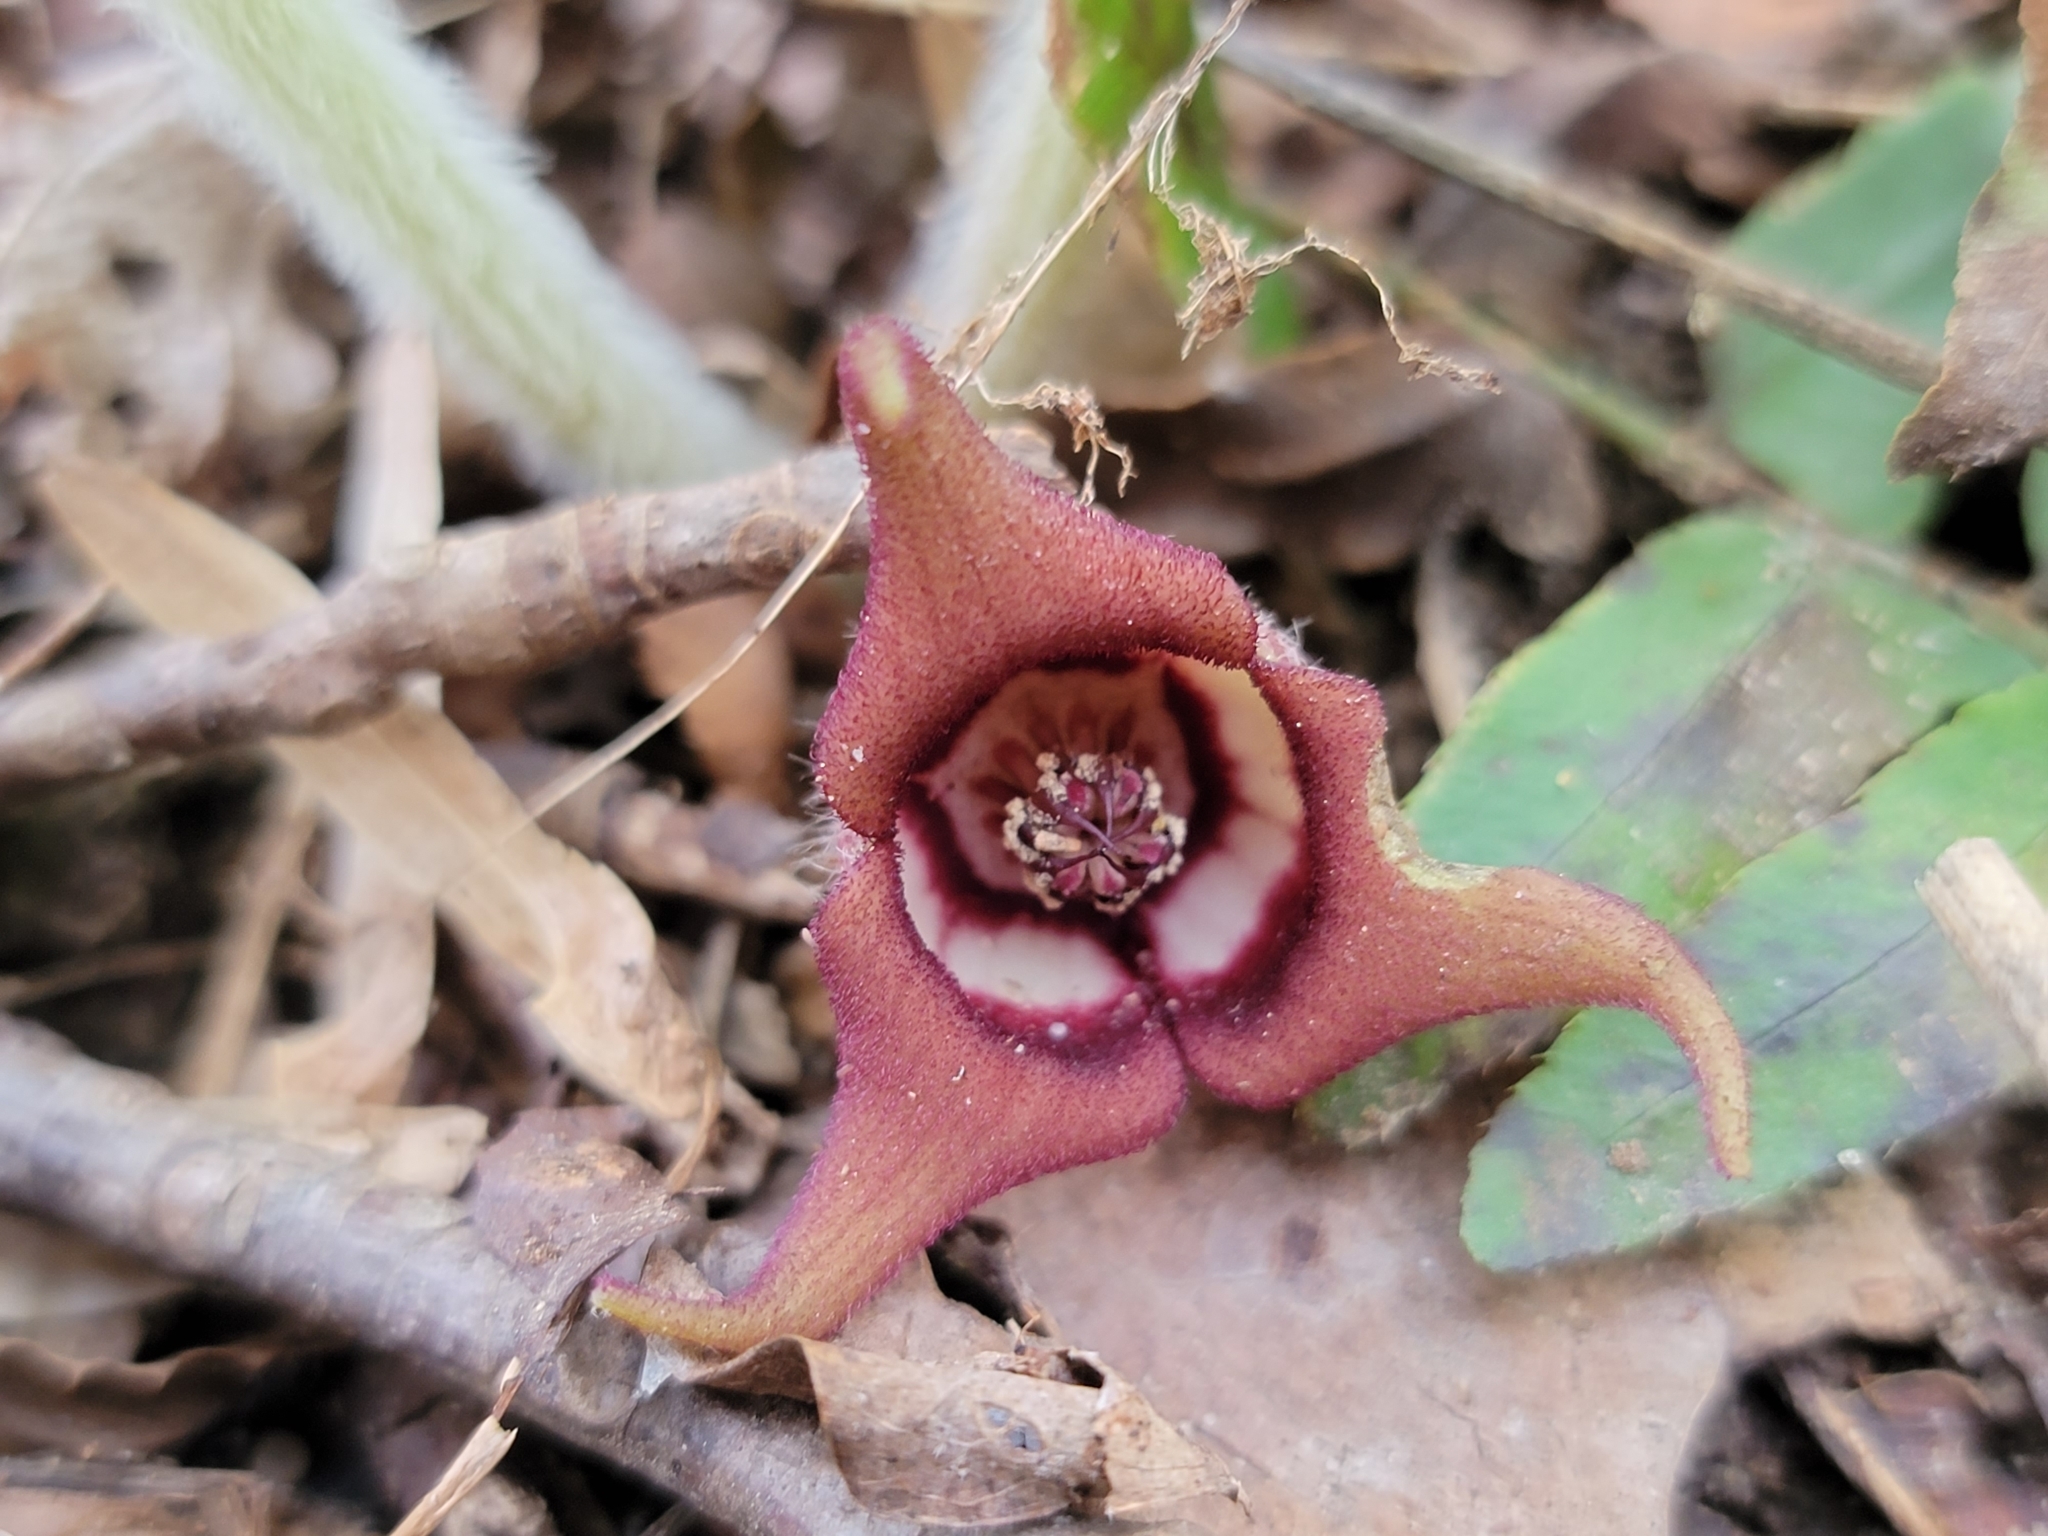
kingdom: Plantae
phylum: Tracheophyta
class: Magnoliopsida
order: Piperales
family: Aristolochiaceae
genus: Asarum
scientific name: Asarum canadense
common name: Wild ginger
